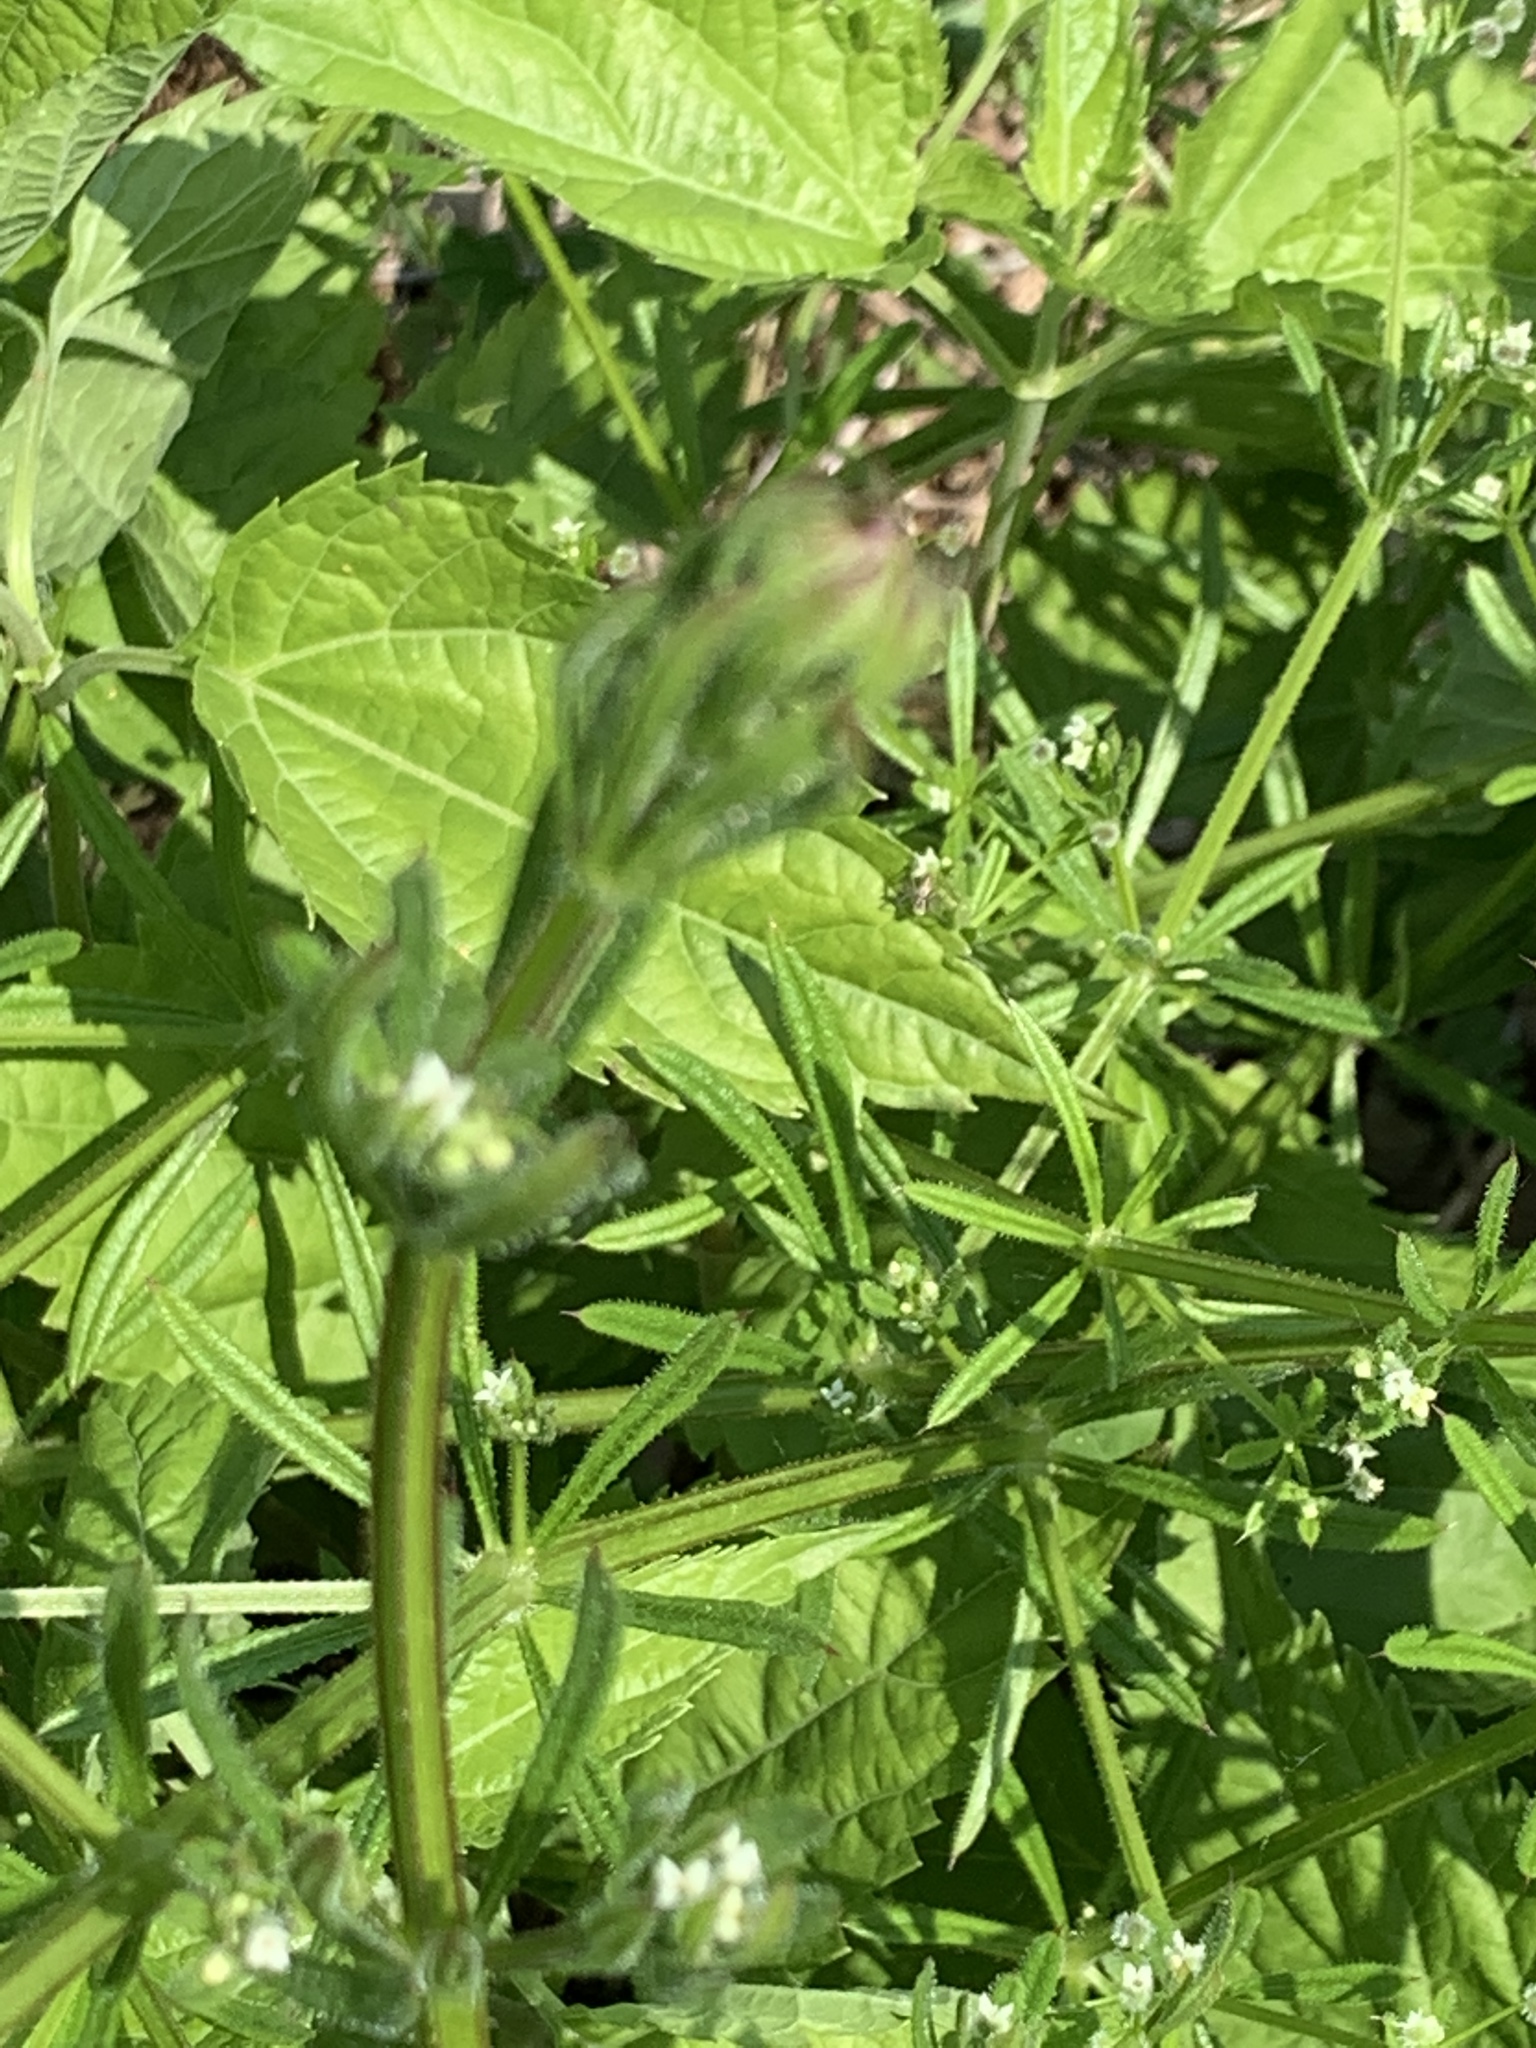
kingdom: Plantae
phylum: Tracheophyta
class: Magnoliopsida
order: Gentianales
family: Rubiaceae
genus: Galium
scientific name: Galium aparine
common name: Cleavers
